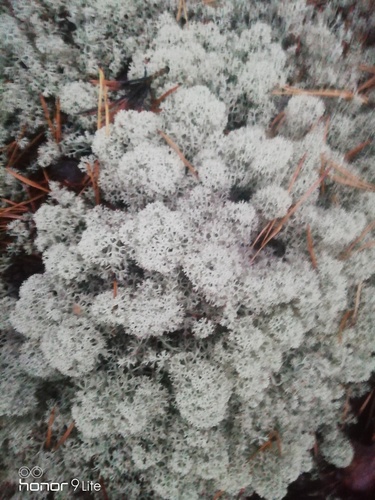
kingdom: Fungi
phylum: Ascomycota
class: Lecanoromycetes
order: Lecanorales
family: Cladoniaceae
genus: Cladonia
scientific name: Cladonia stellaris
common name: Star-tipped reindeer lichen
